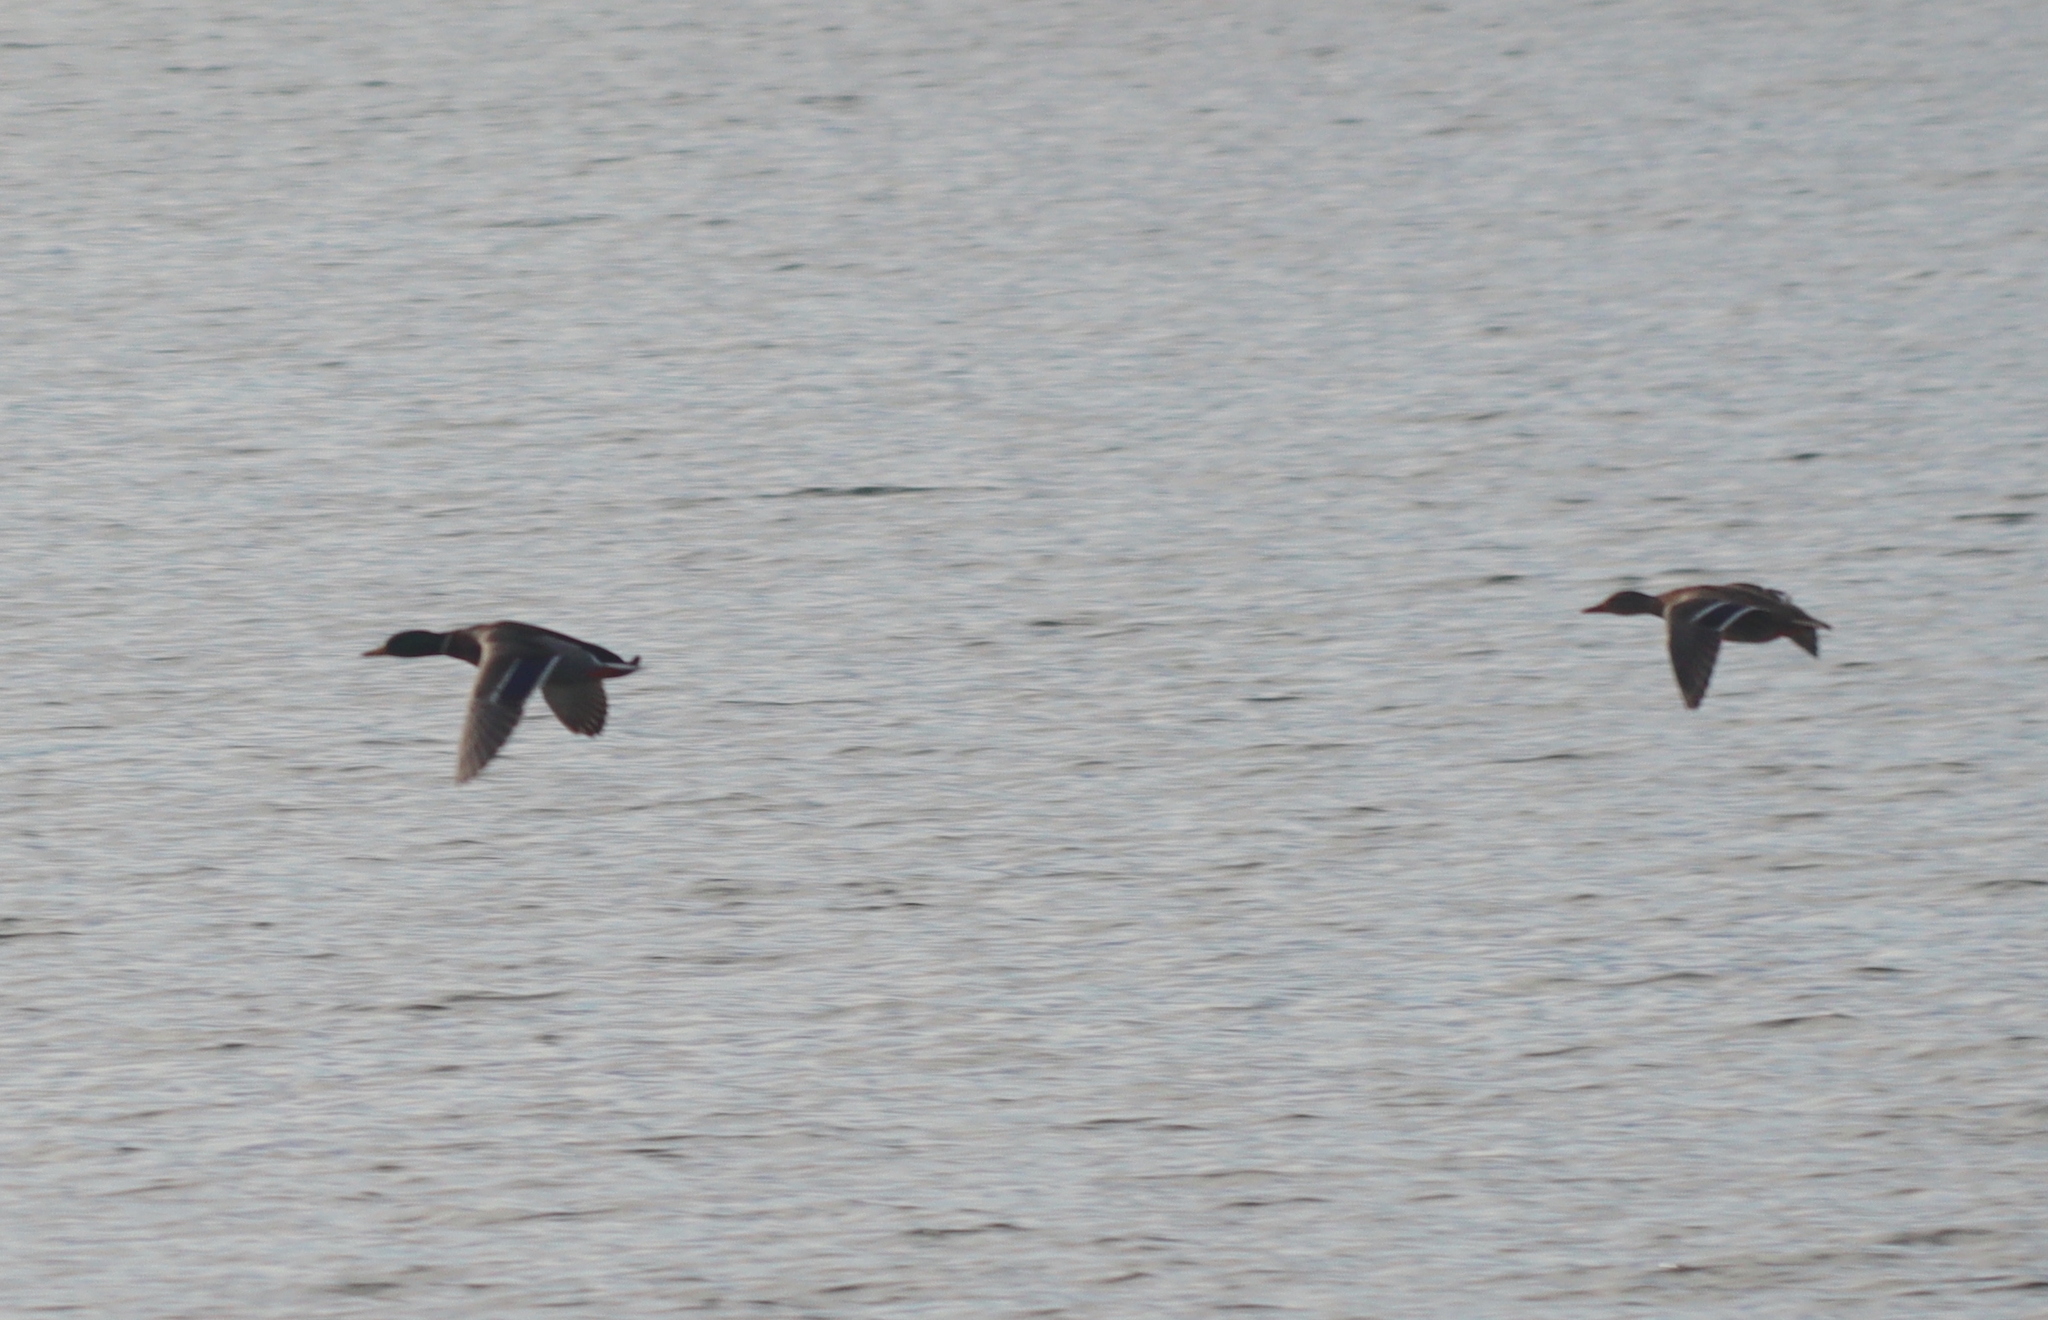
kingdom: Animalia
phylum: Chordata
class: Aves
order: Anseriformes
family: Anatidae
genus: Anas
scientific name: Anas platyrhynchos
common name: Mallard
